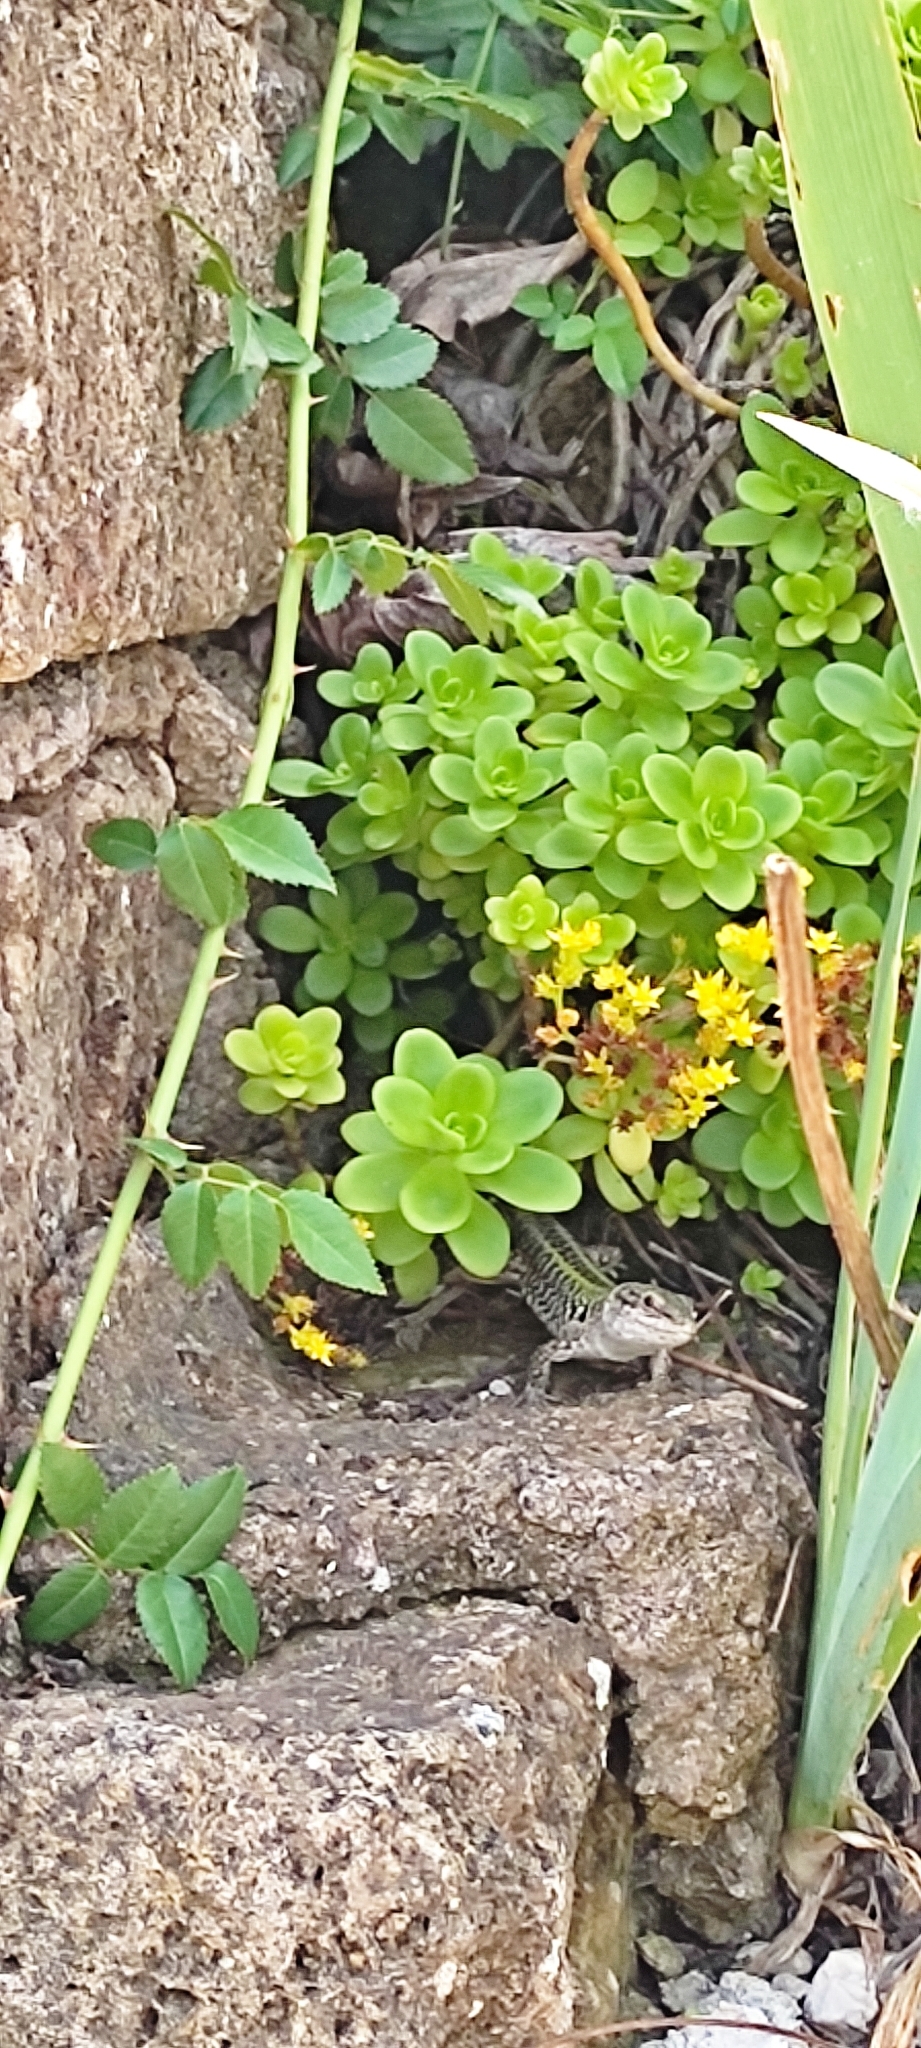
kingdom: Animalia
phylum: Chordata
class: Squamata
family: Lacertidae
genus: Podarcis
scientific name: Podarcis siculus
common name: Italian wall lizard
